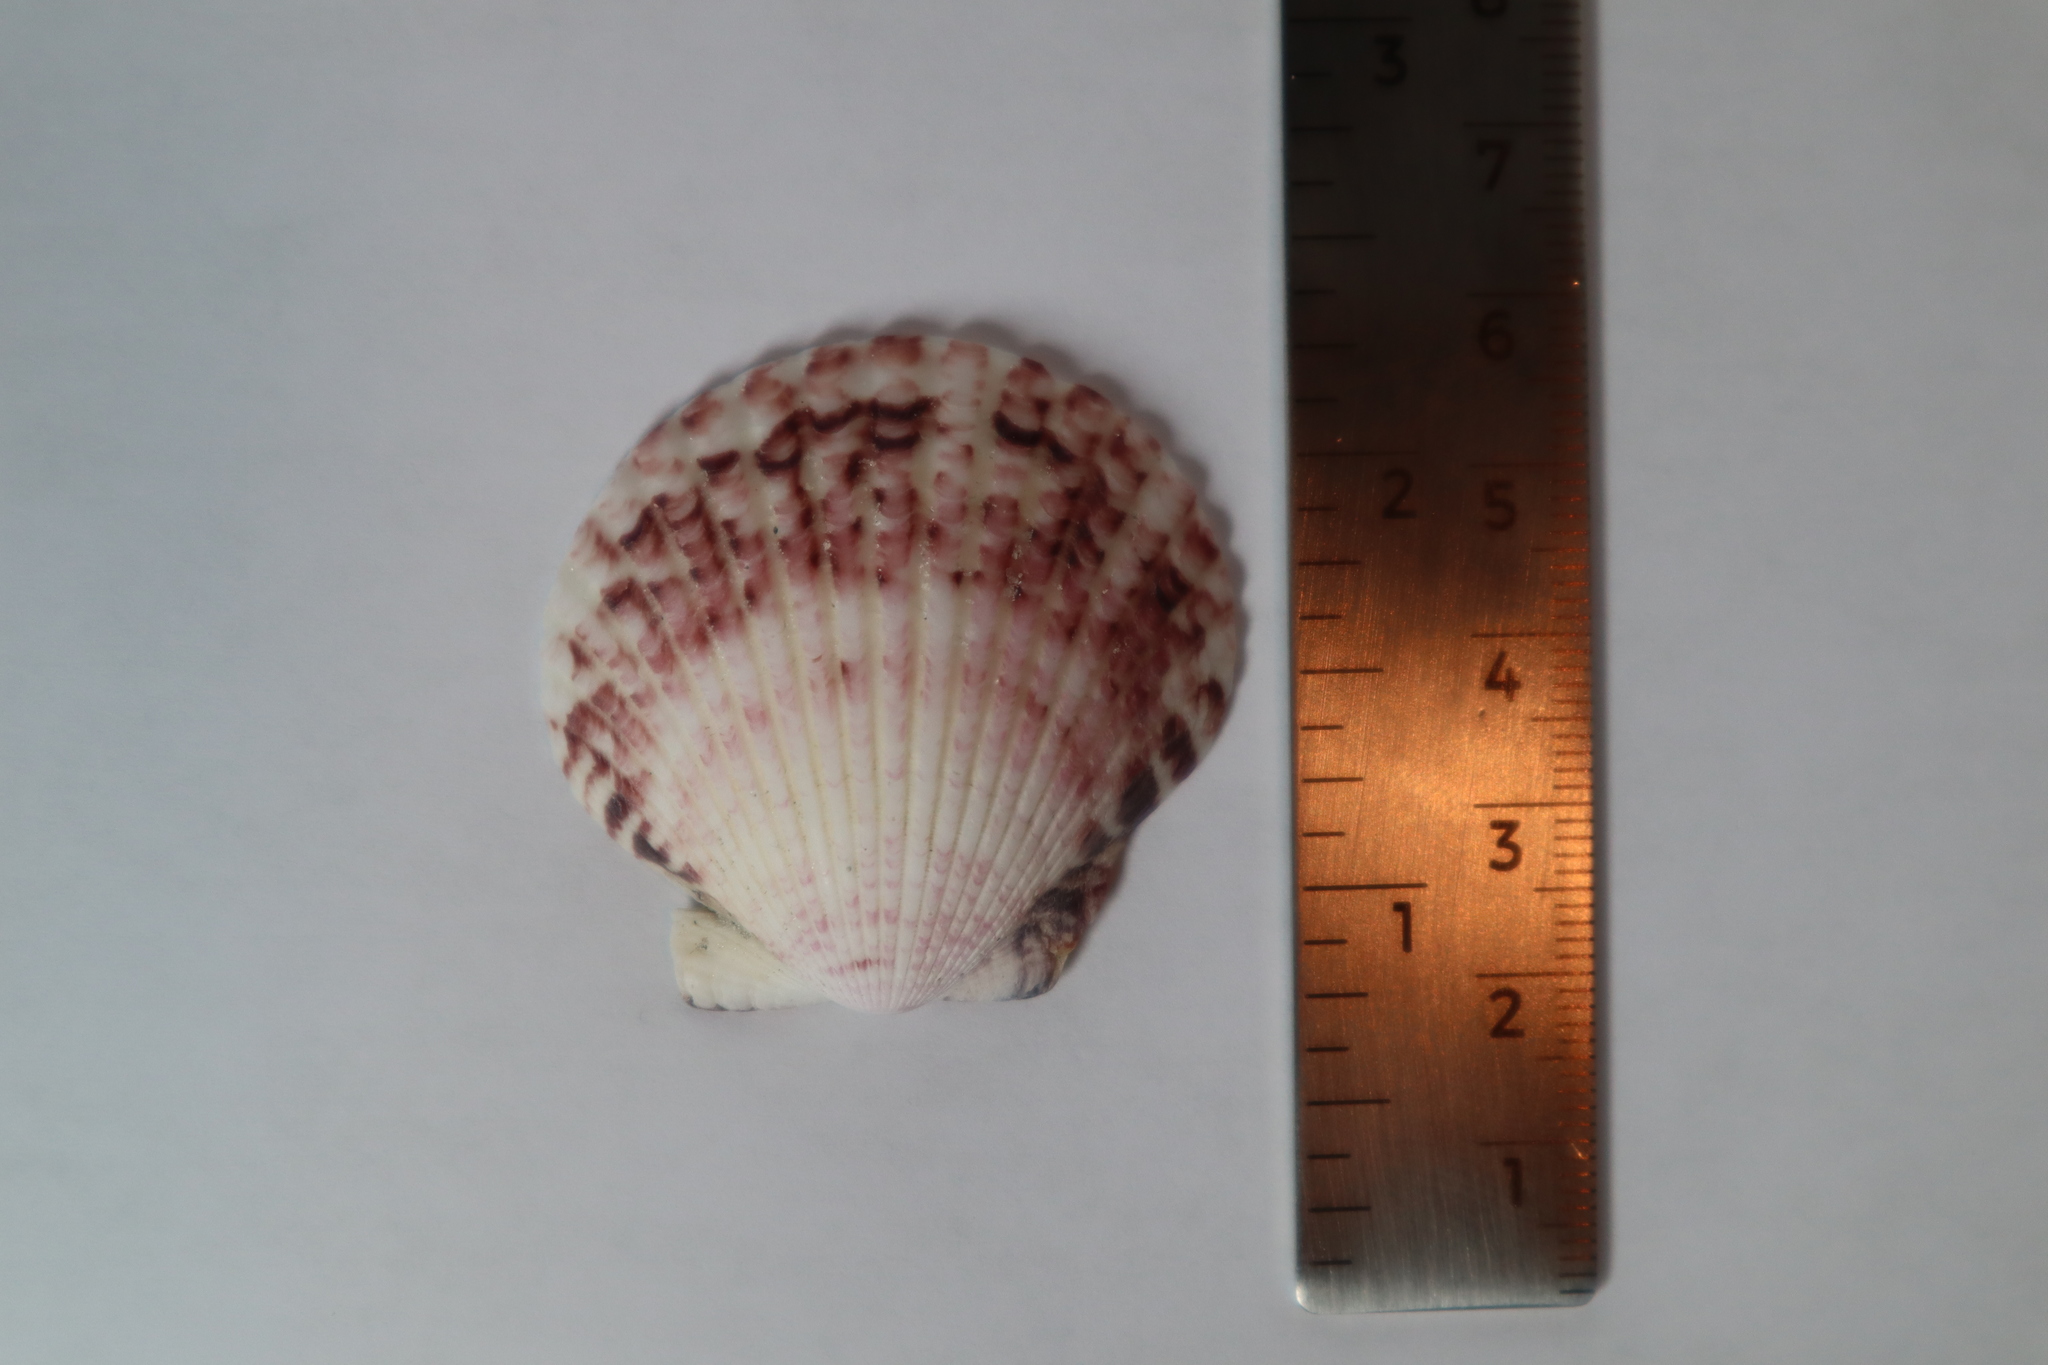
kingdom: Animalia
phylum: Mollusca
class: Bivalvia
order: Pectinida
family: Pectinidae
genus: Argopecten
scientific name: Argopecten gibbus
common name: Atlantic calico scallop
